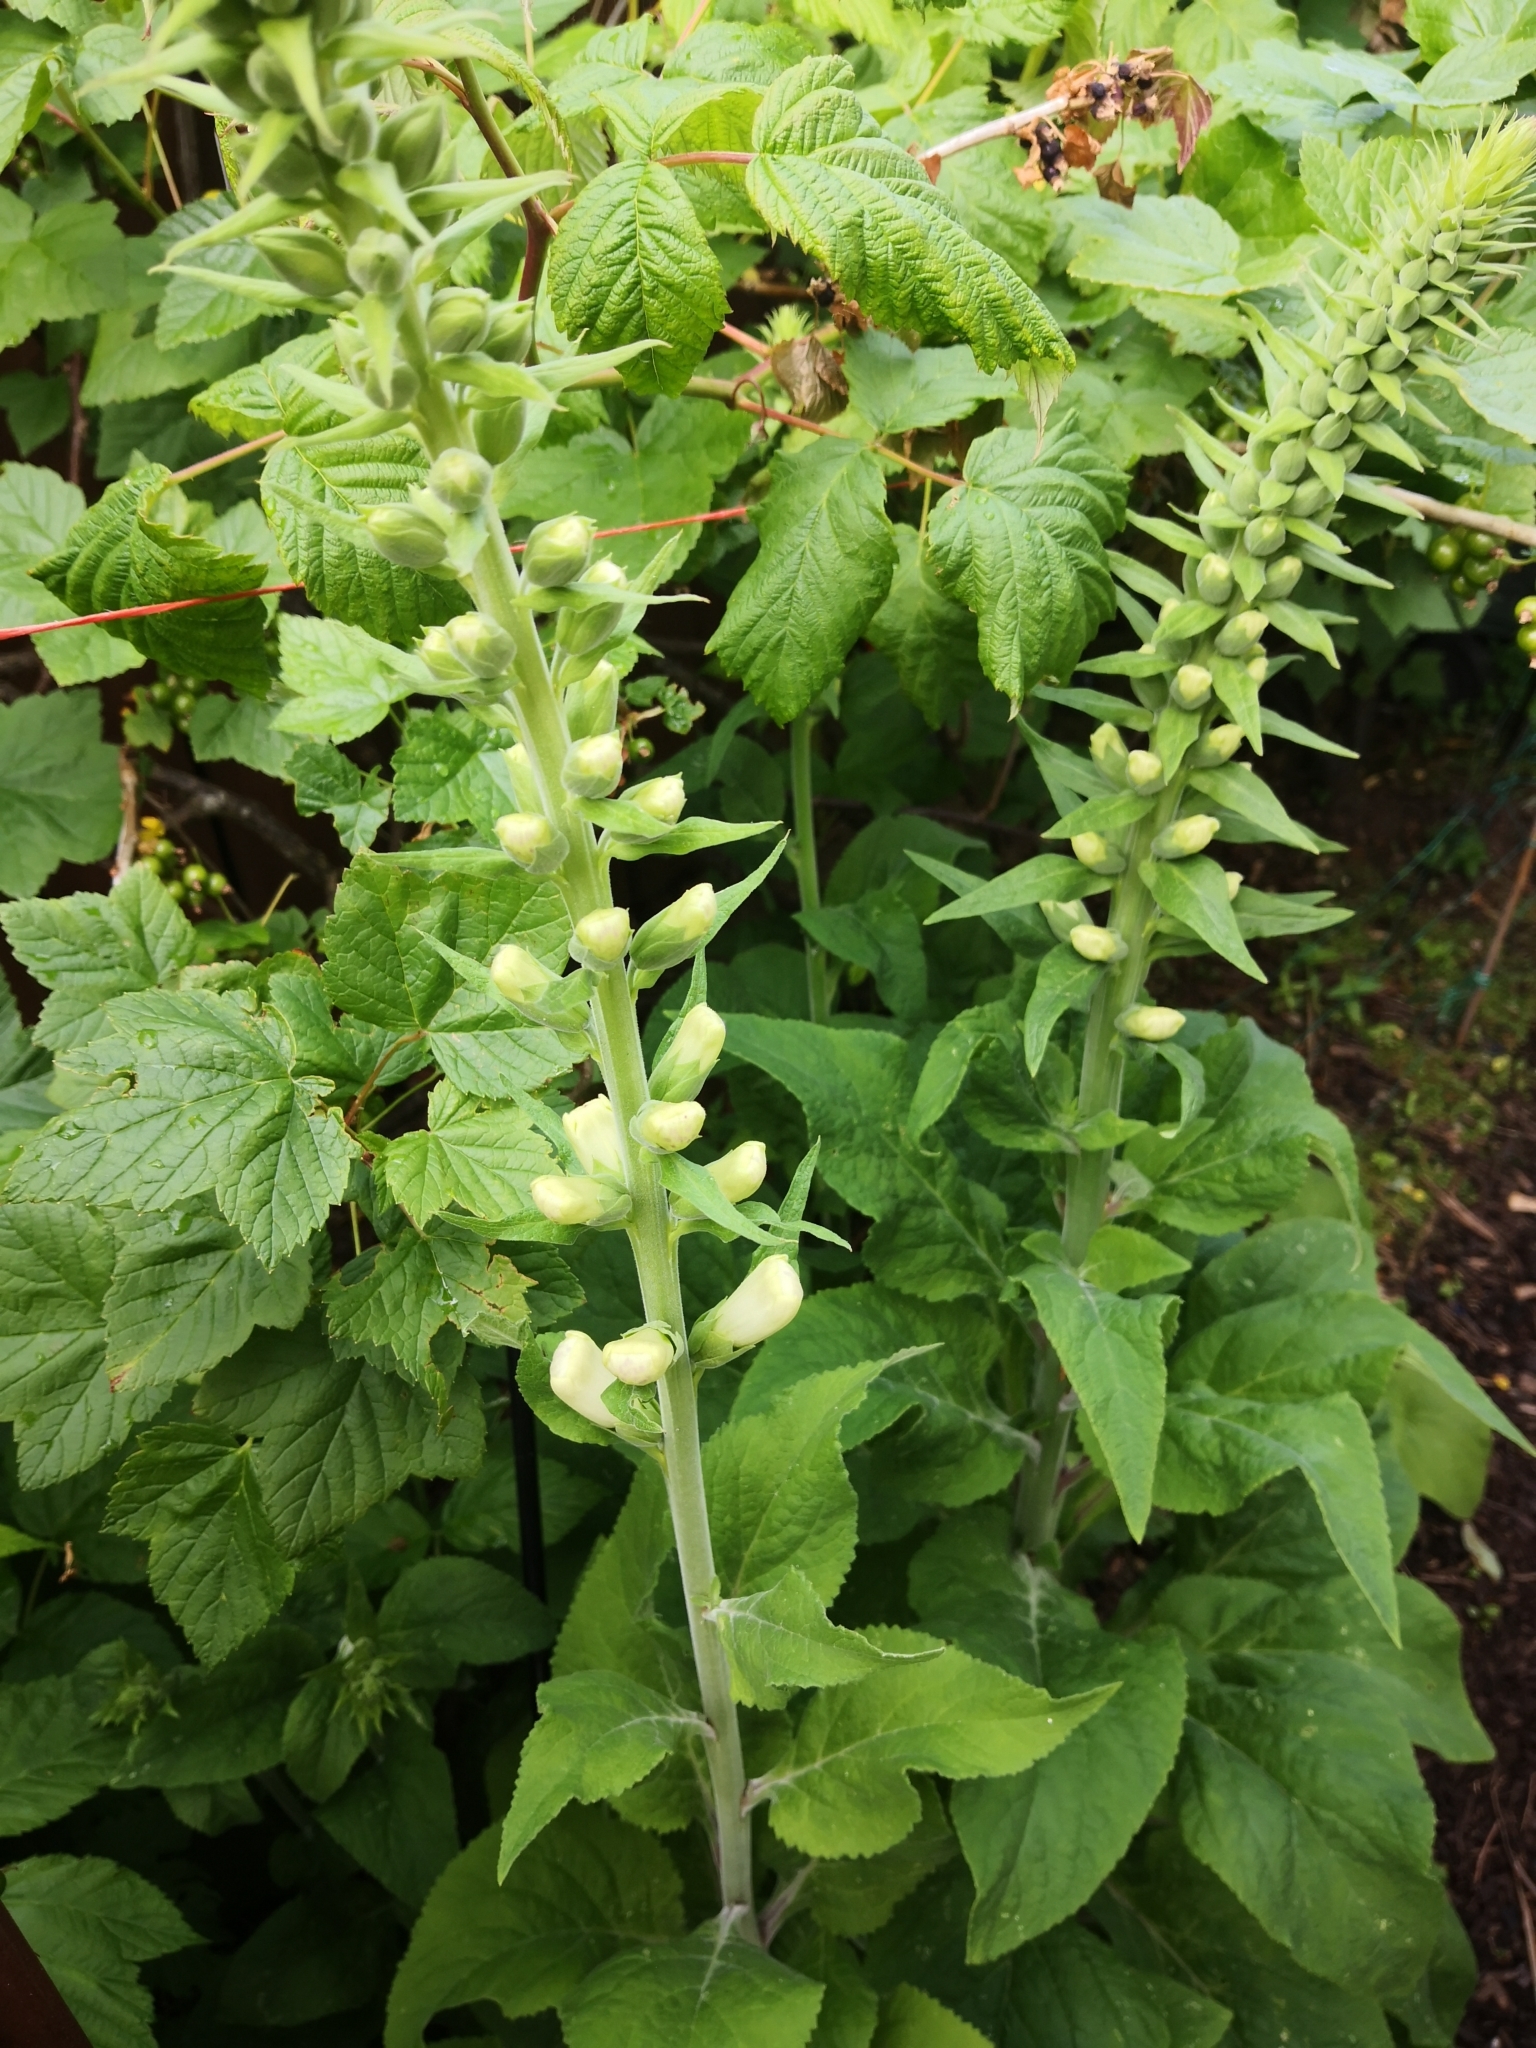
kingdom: Plantae
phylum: Tracheophyta
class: Magnoliopsida
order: Lamiales
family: Plantaginaceae
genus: Digitalis
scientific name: Digitalis purpurea
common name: Foxglove
